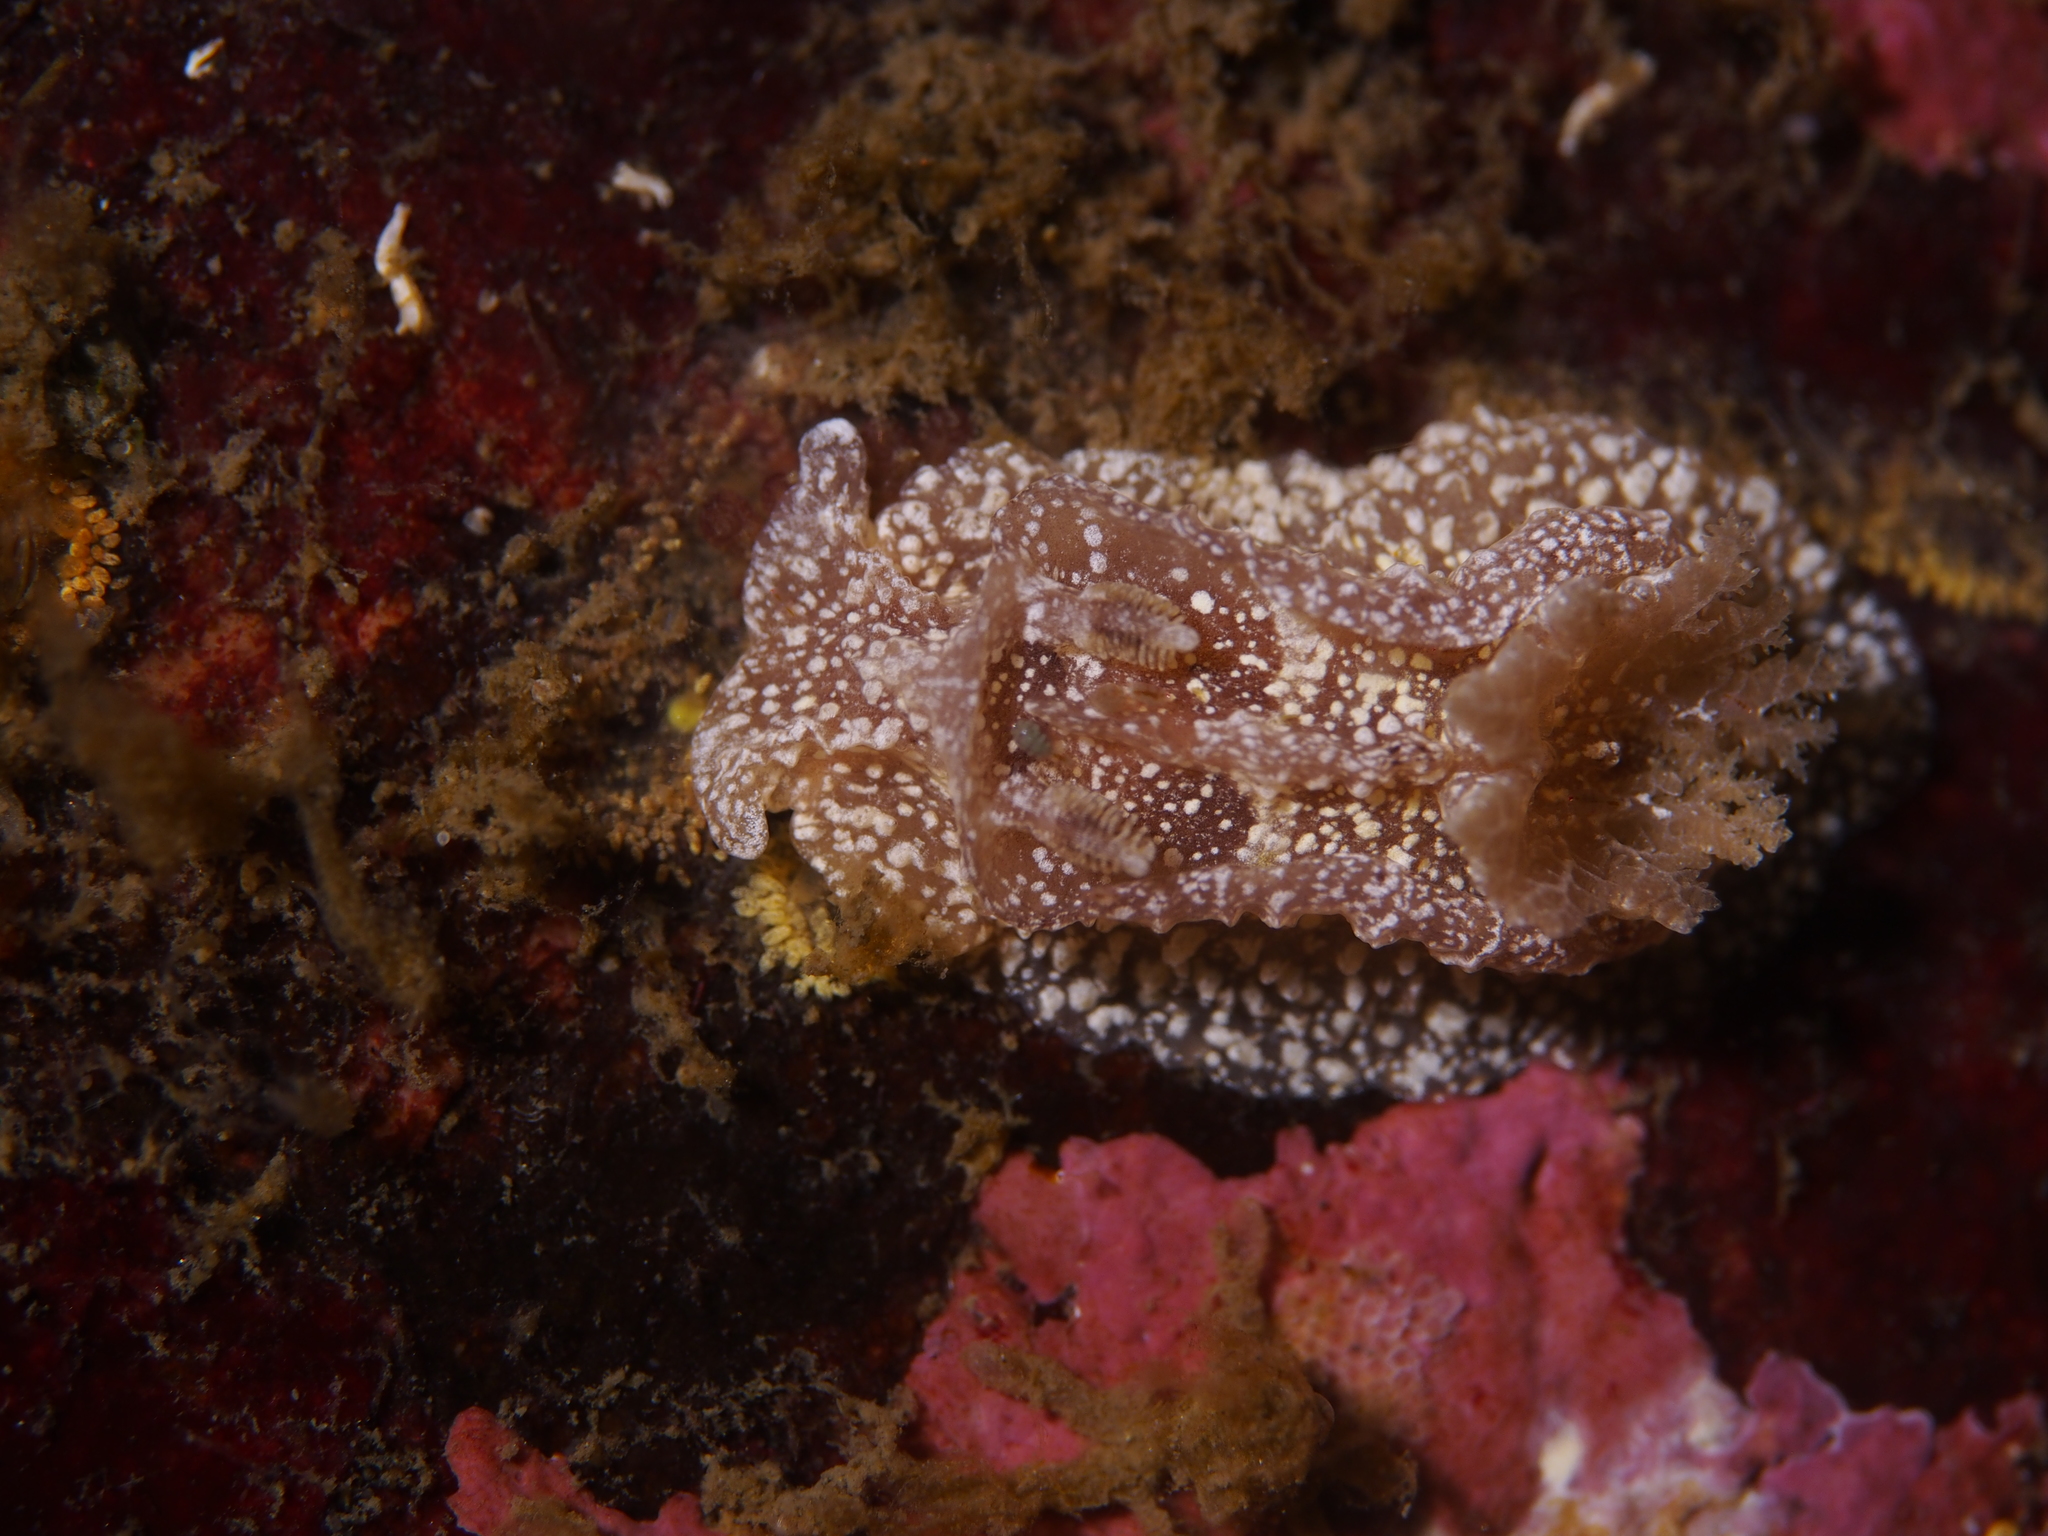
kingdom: Animalia
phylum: Mollusca
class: Gastropoda
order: Nudibranchia
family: Goniodorididae
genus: Pelagella
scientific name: Pelagella castanea
